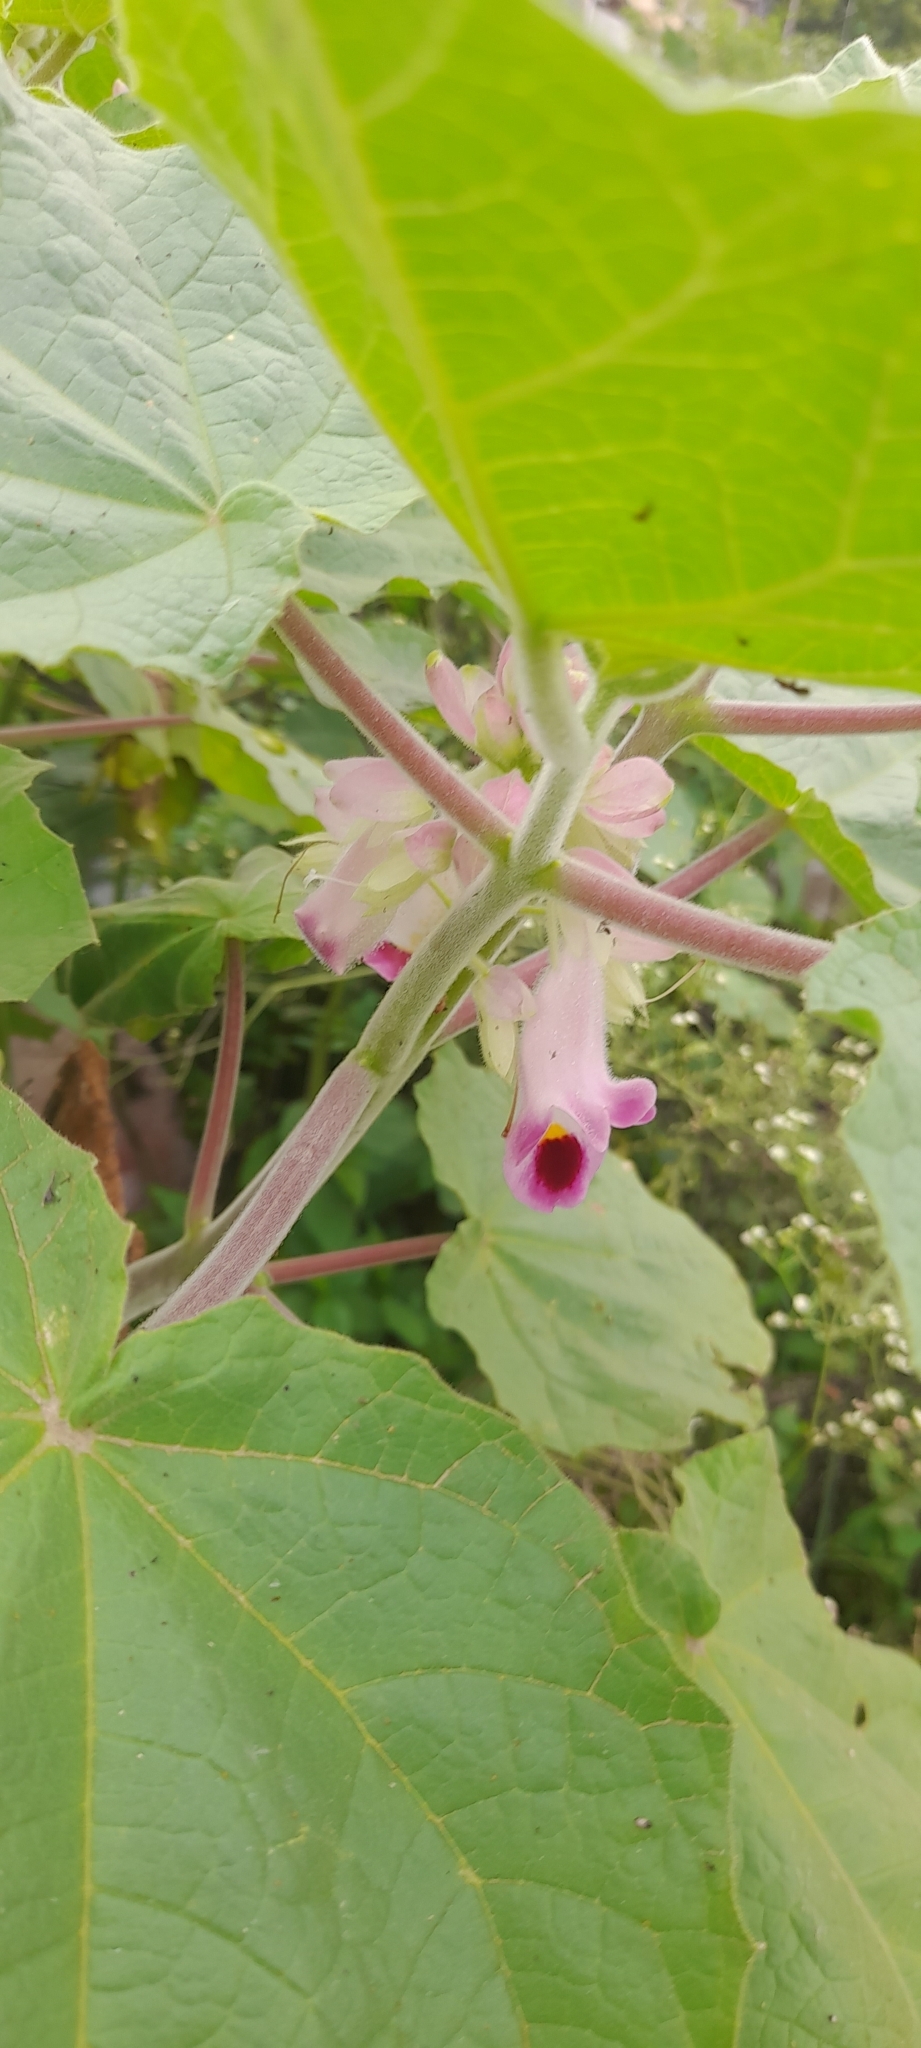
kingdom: Plantae
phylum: Tracheophyta
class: Magnoliopsida
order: Lamiales
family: Martyniaceae
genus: Martynia
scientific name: Martynia annua
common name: Tiger's-claw
